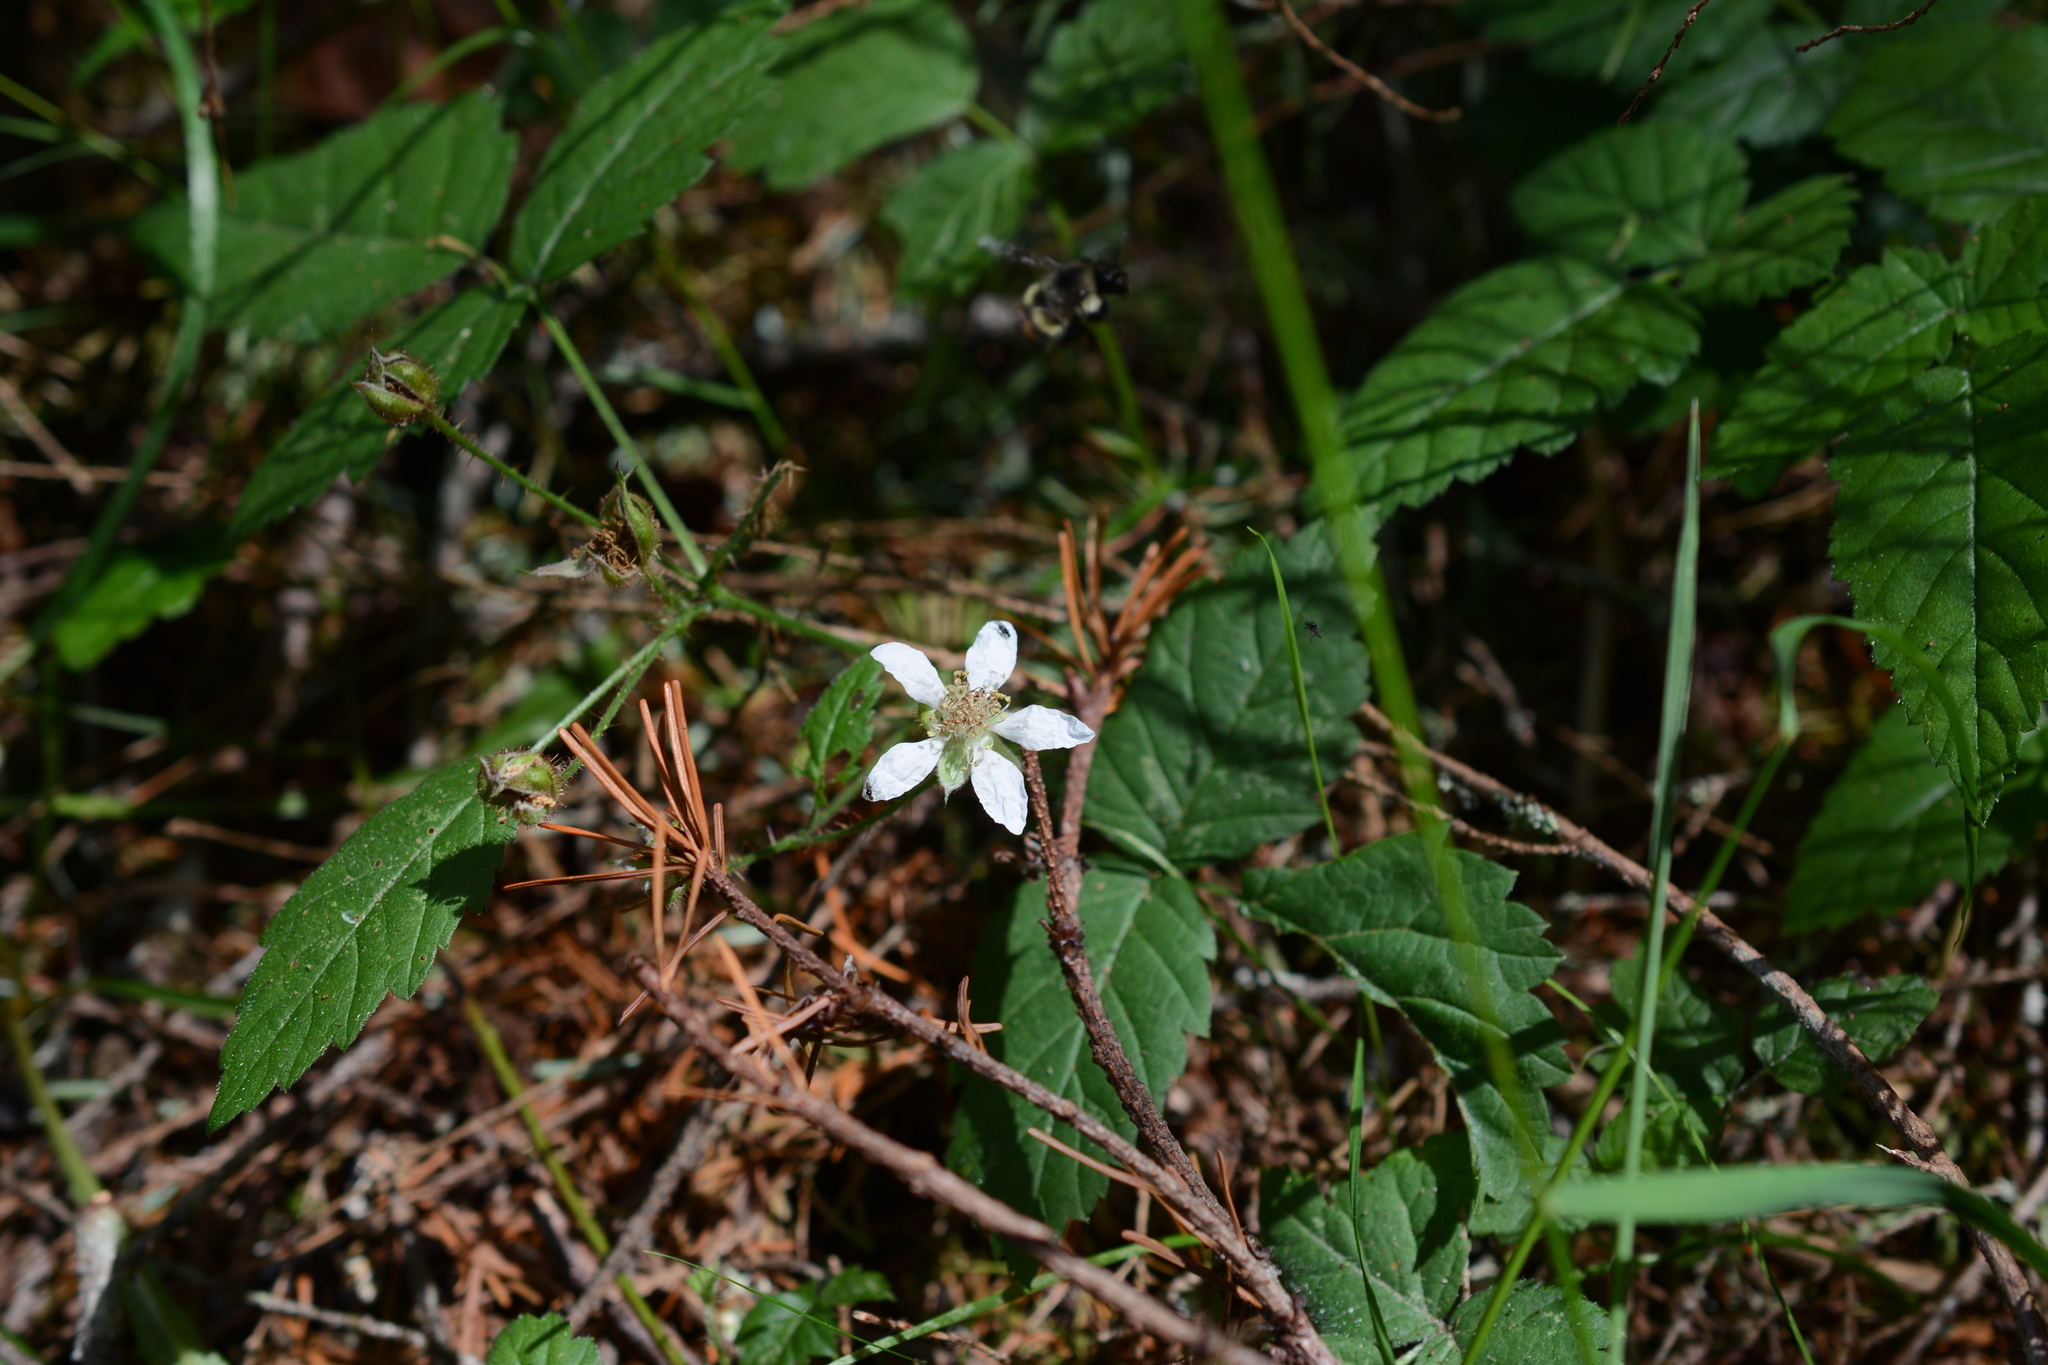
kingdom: Plantae
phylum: Tracheophyta
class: Magnoliopsida
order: Rosales
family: Rosaceae
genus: Rubus
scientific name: Rubus ursinus
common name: Pacific blackberry
